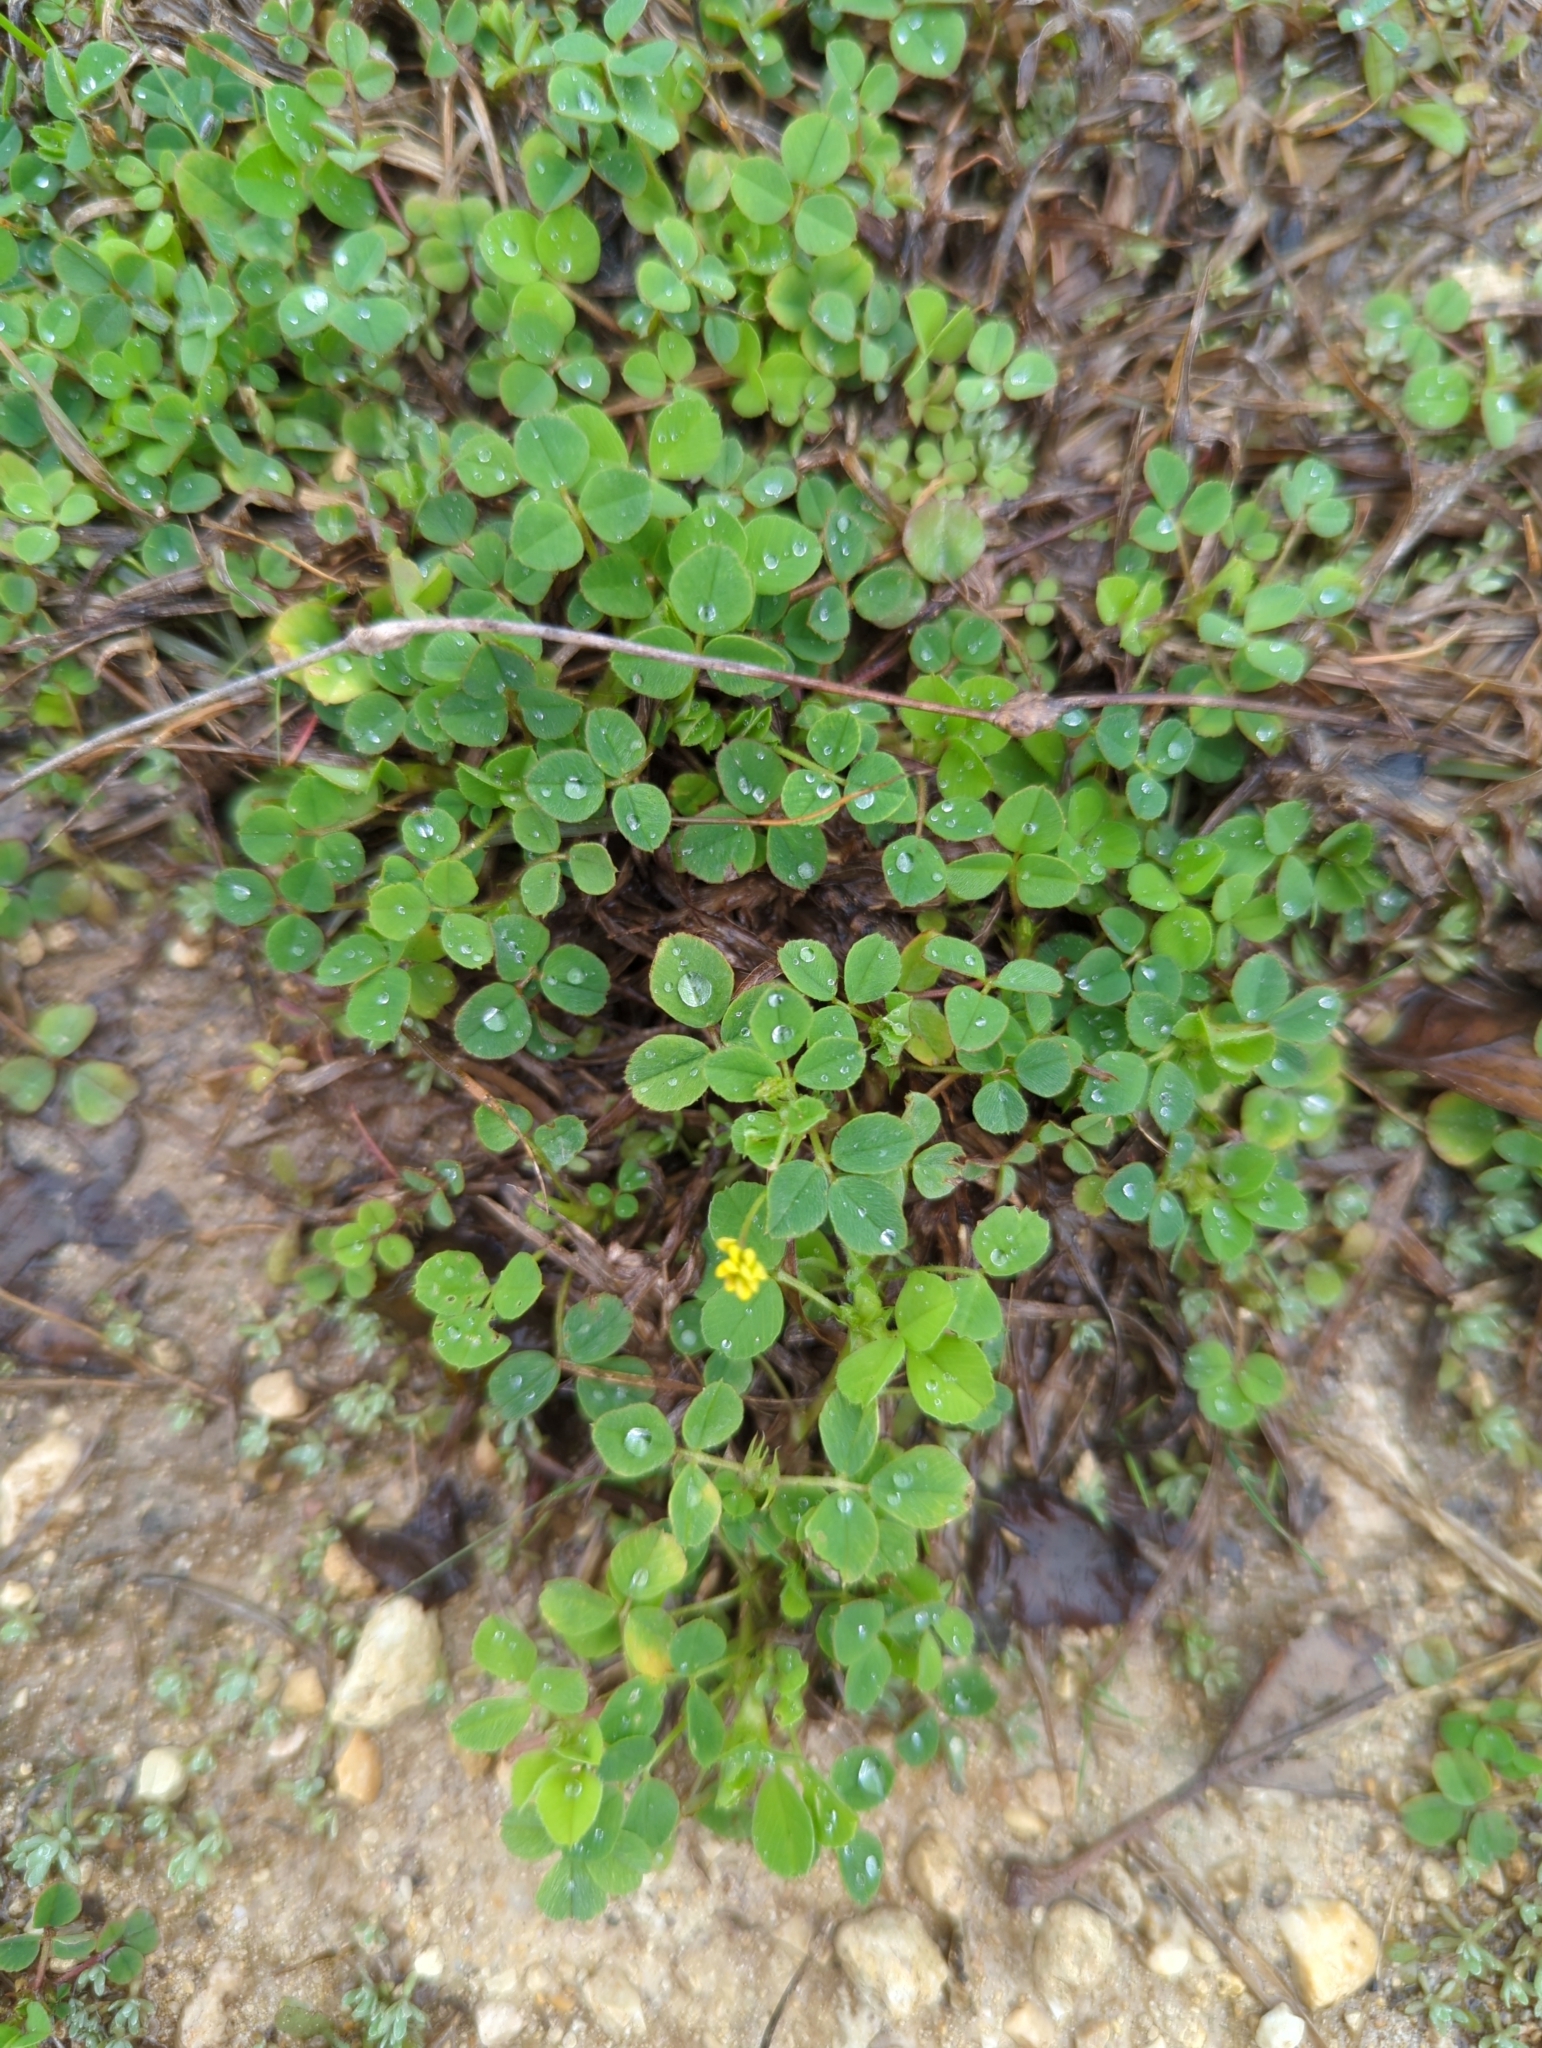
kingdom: Plantae
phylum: Tracheophyta
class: Magnoliopsida
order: Fabales
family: Fabaceae
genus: Medicago
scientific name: Medicago lupulina
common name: Black medick
